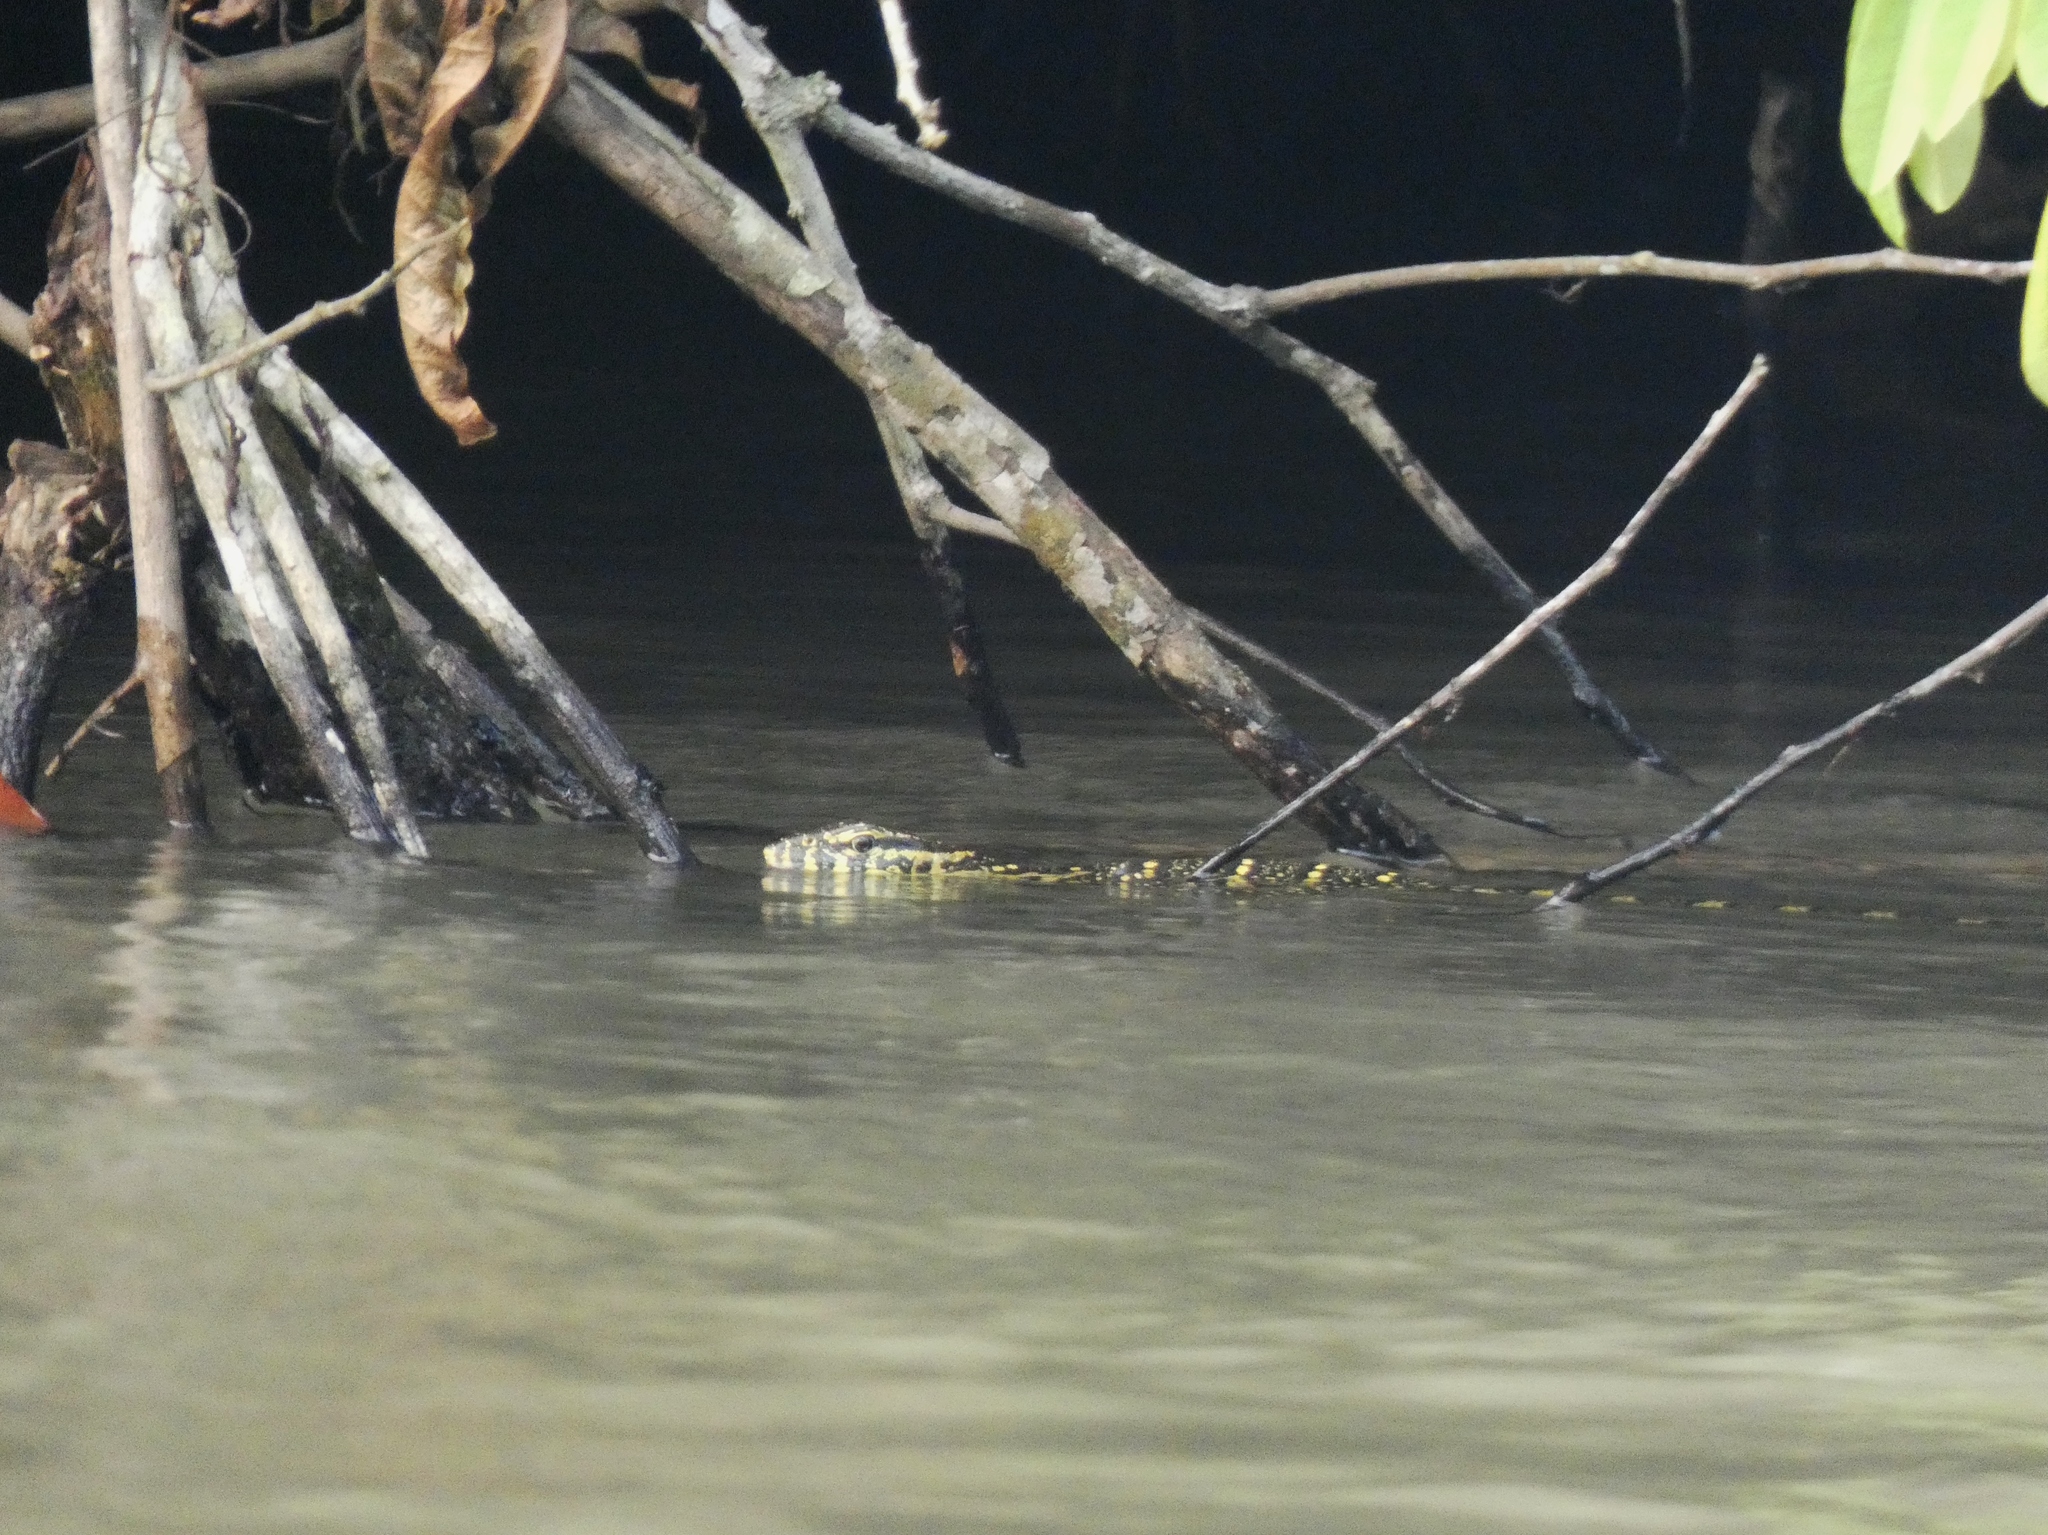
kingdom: Animalia
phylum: Chordata
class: Squamata
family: Varanidae
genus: Varanus
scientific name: Varanus niloticus
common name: Nile monitor
